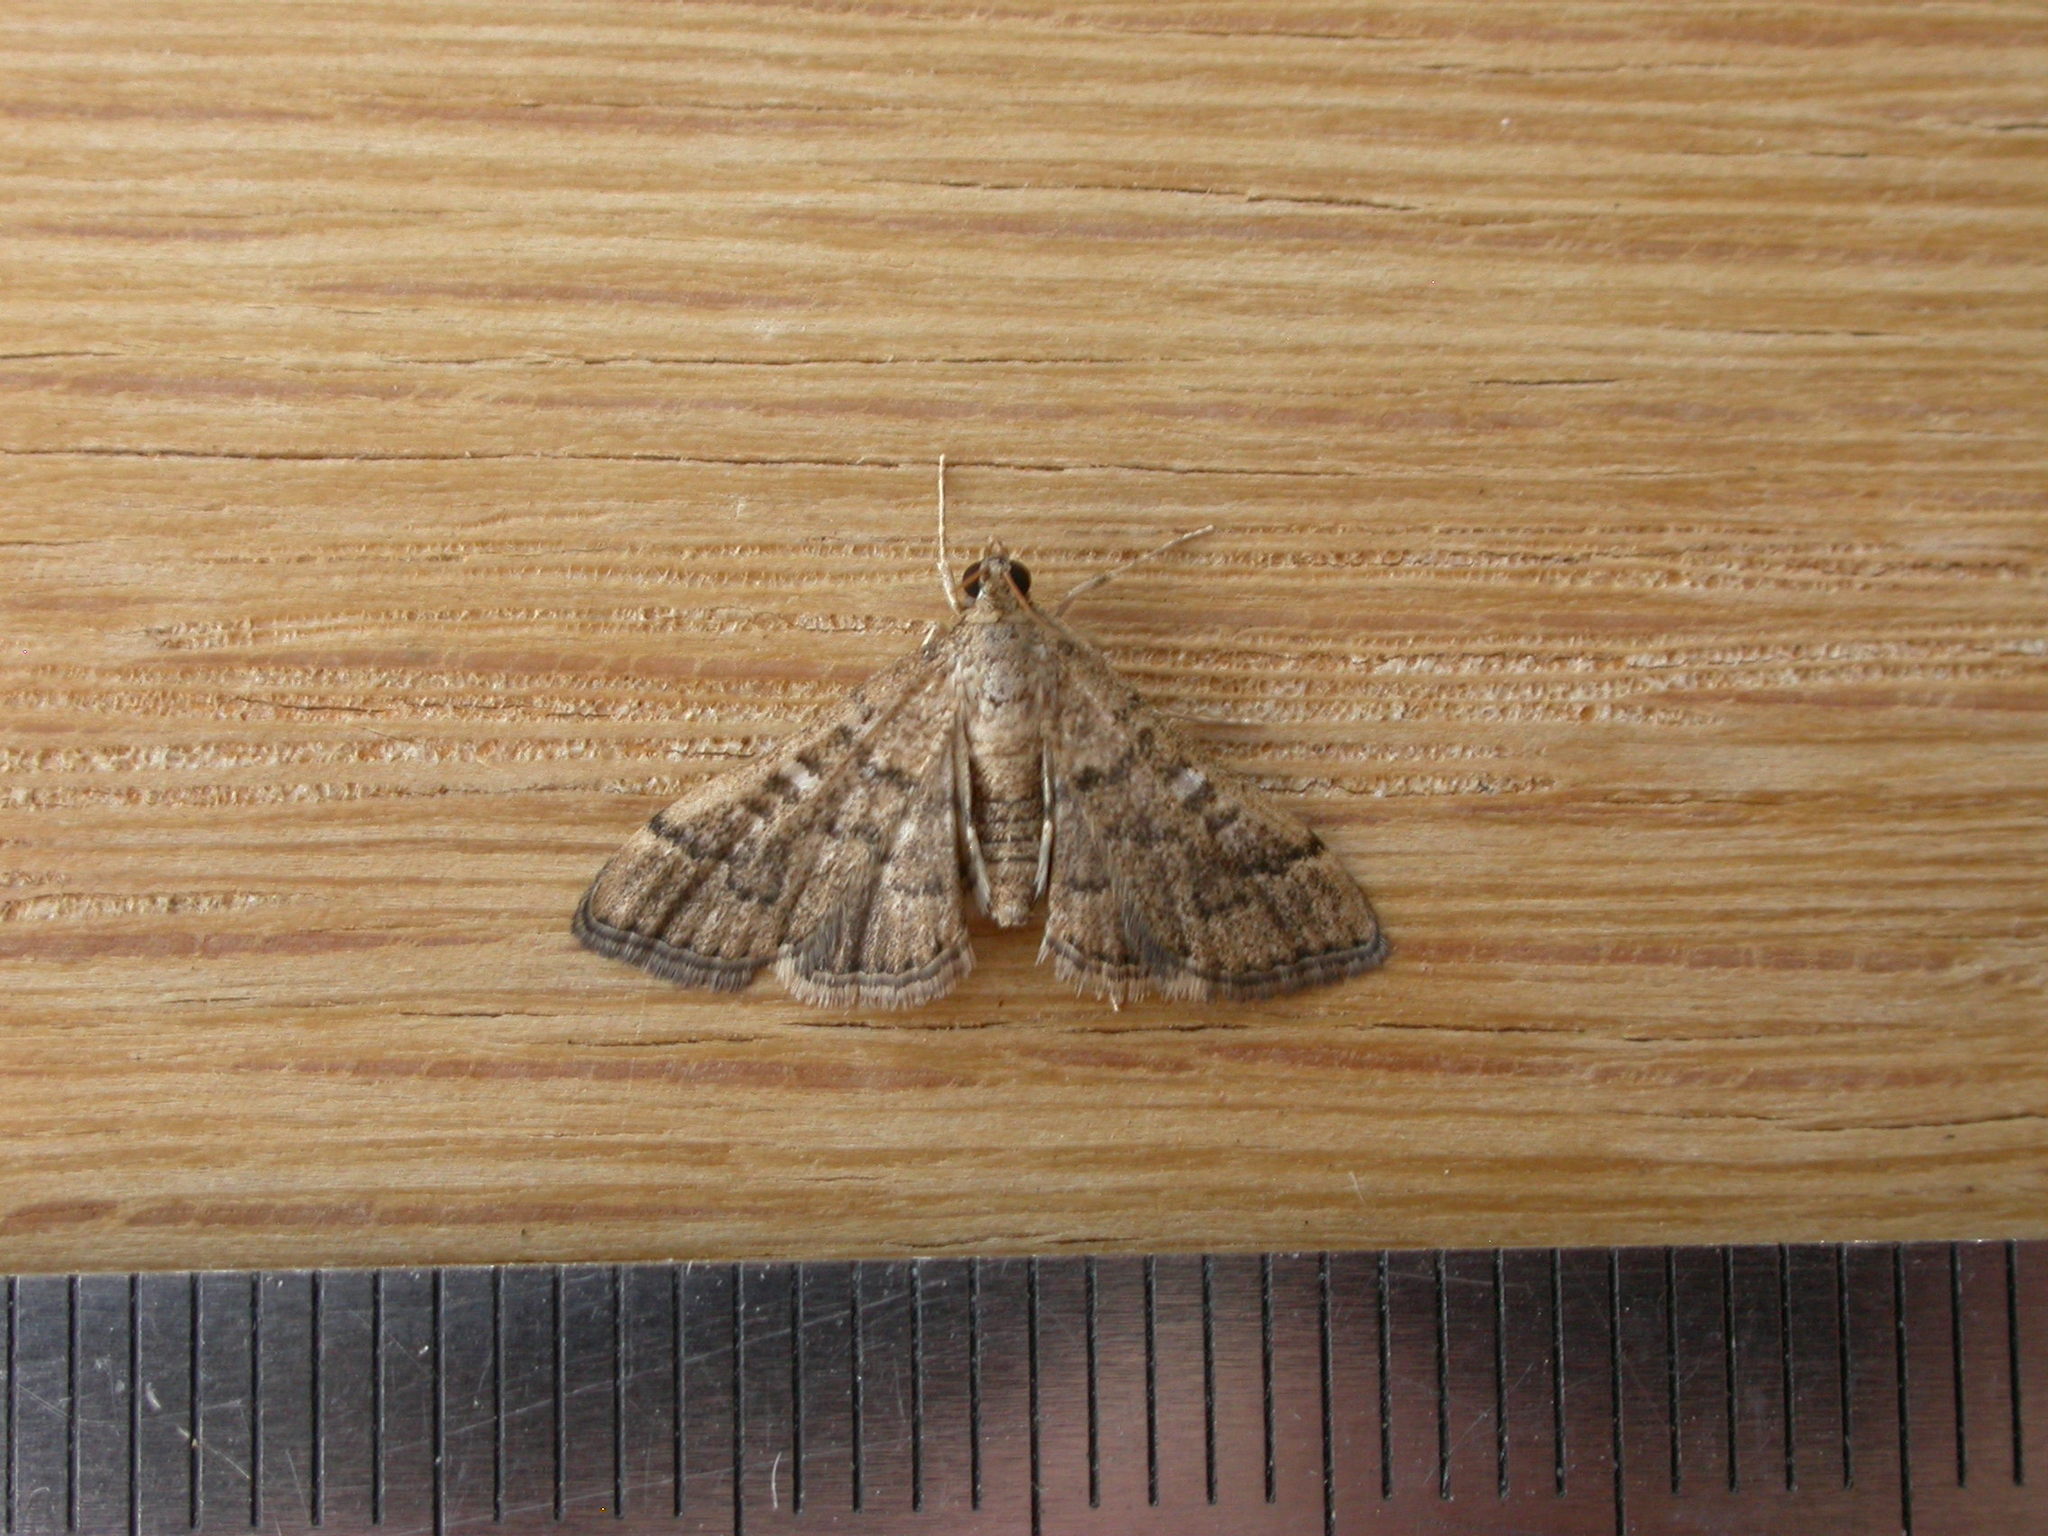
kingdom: Animalia
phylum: Arthropoda
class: Insecta
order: Lepidoptera
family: Crambidae
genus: Nacoleia
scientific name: Nacoleia rhoeoalis
